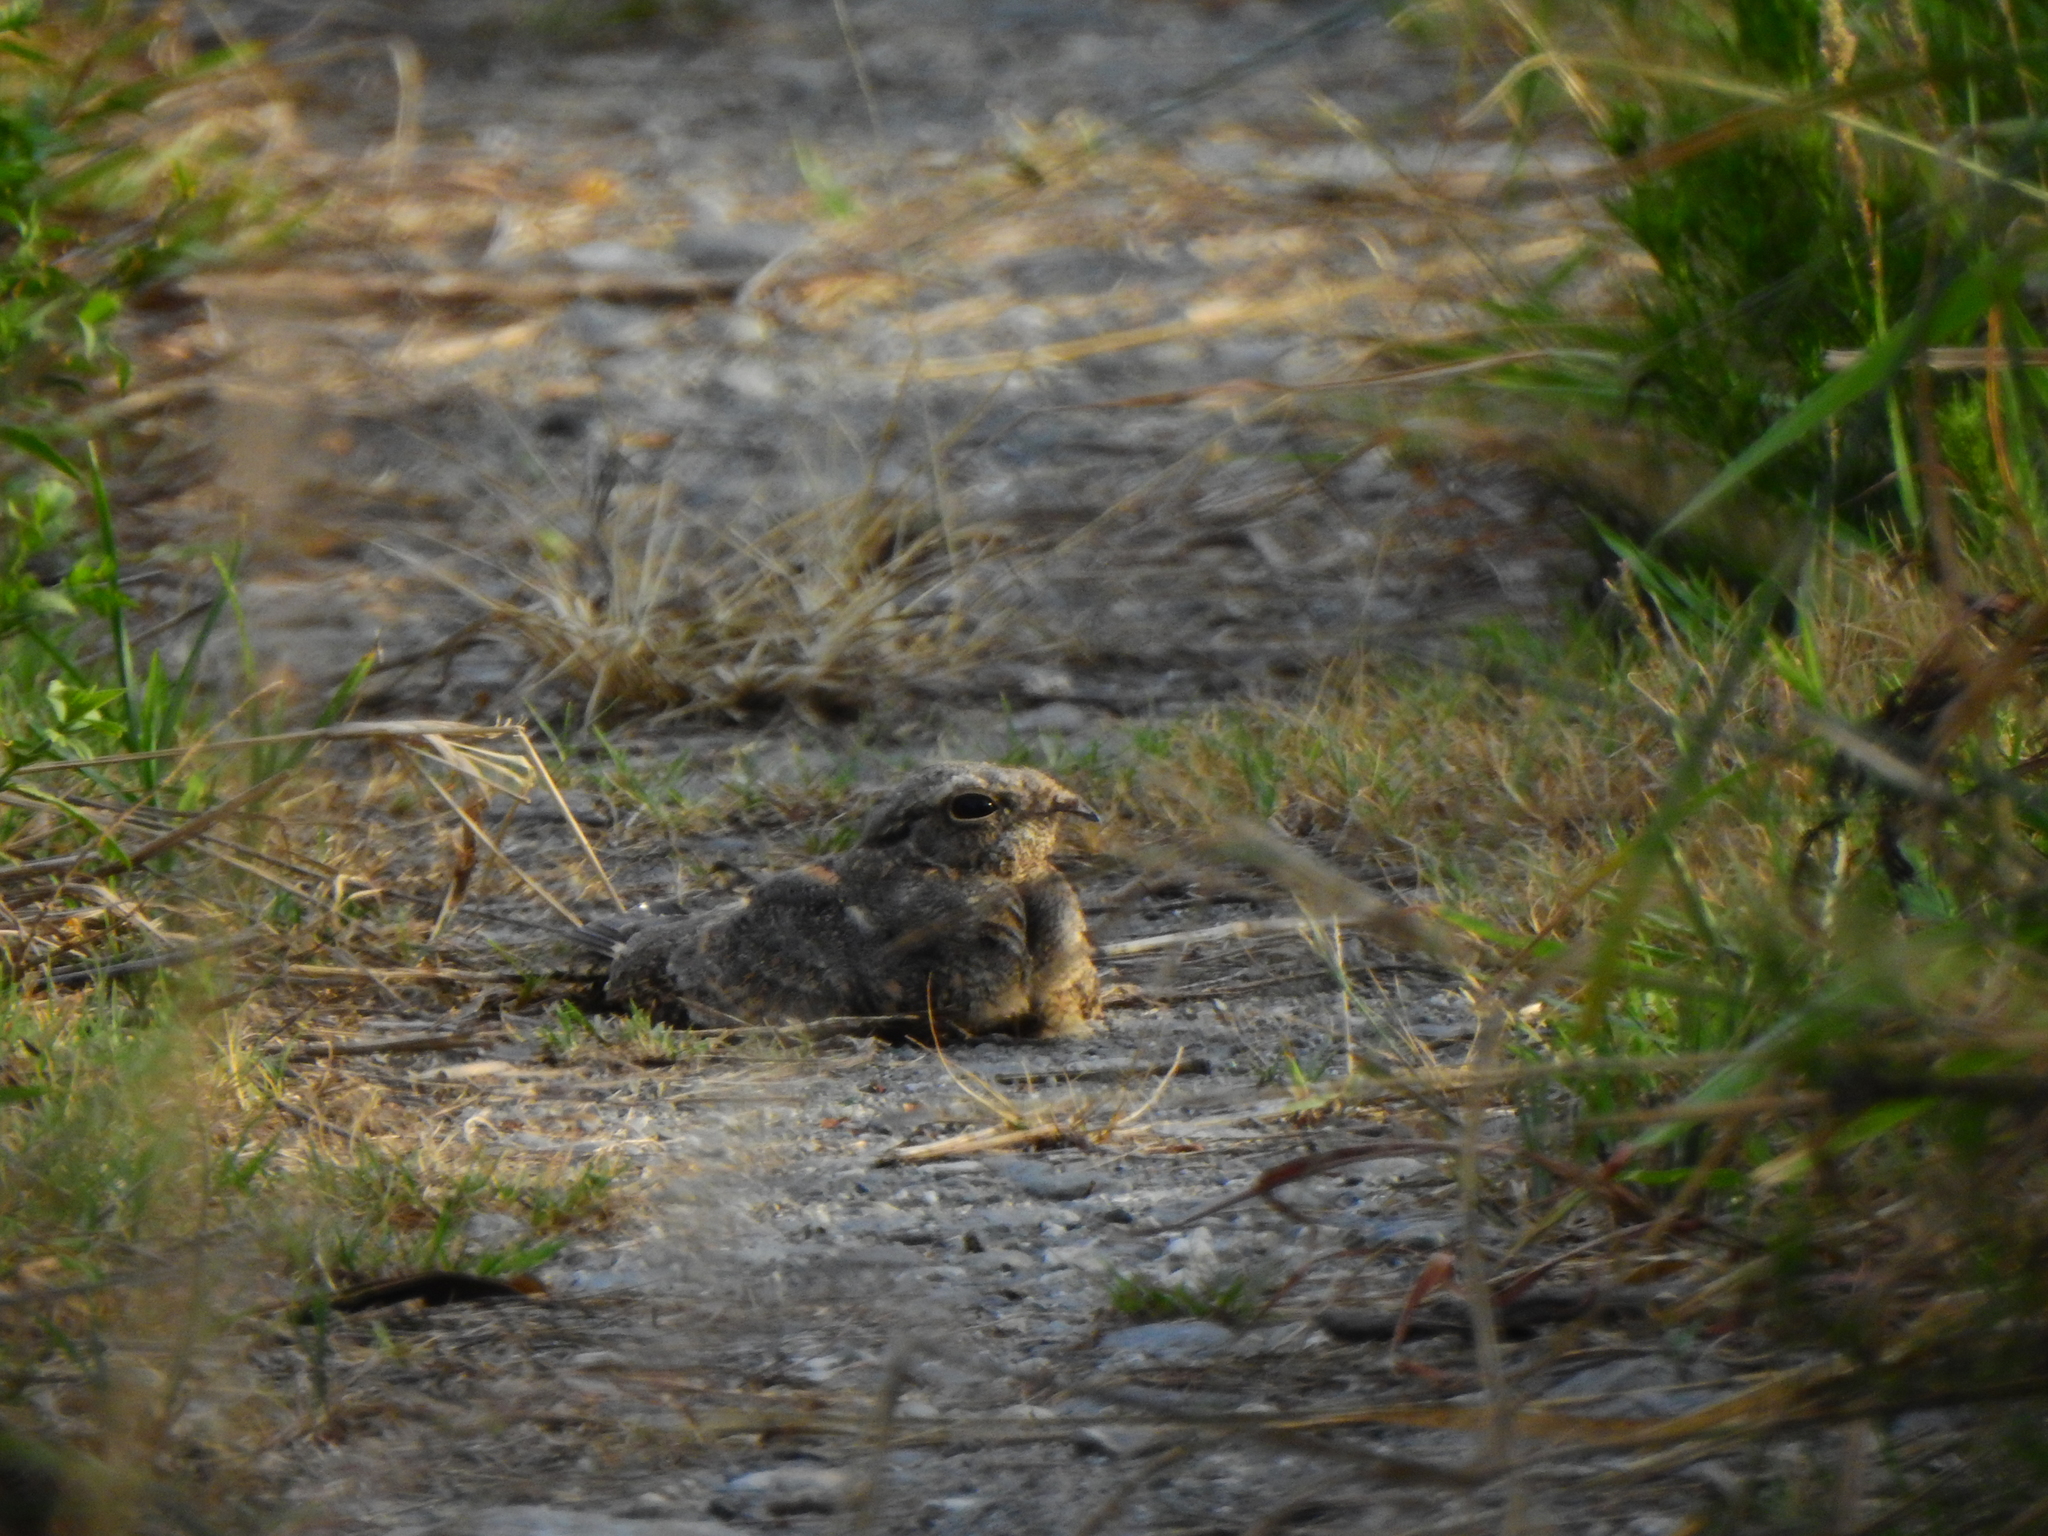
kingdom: Animalia
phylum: Chordata
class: Aves
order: Caprimulgiformes
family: Caprimulgidae
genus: Caprimulgus
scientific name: Caprimulgus affinis
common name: Savanna nightjar
